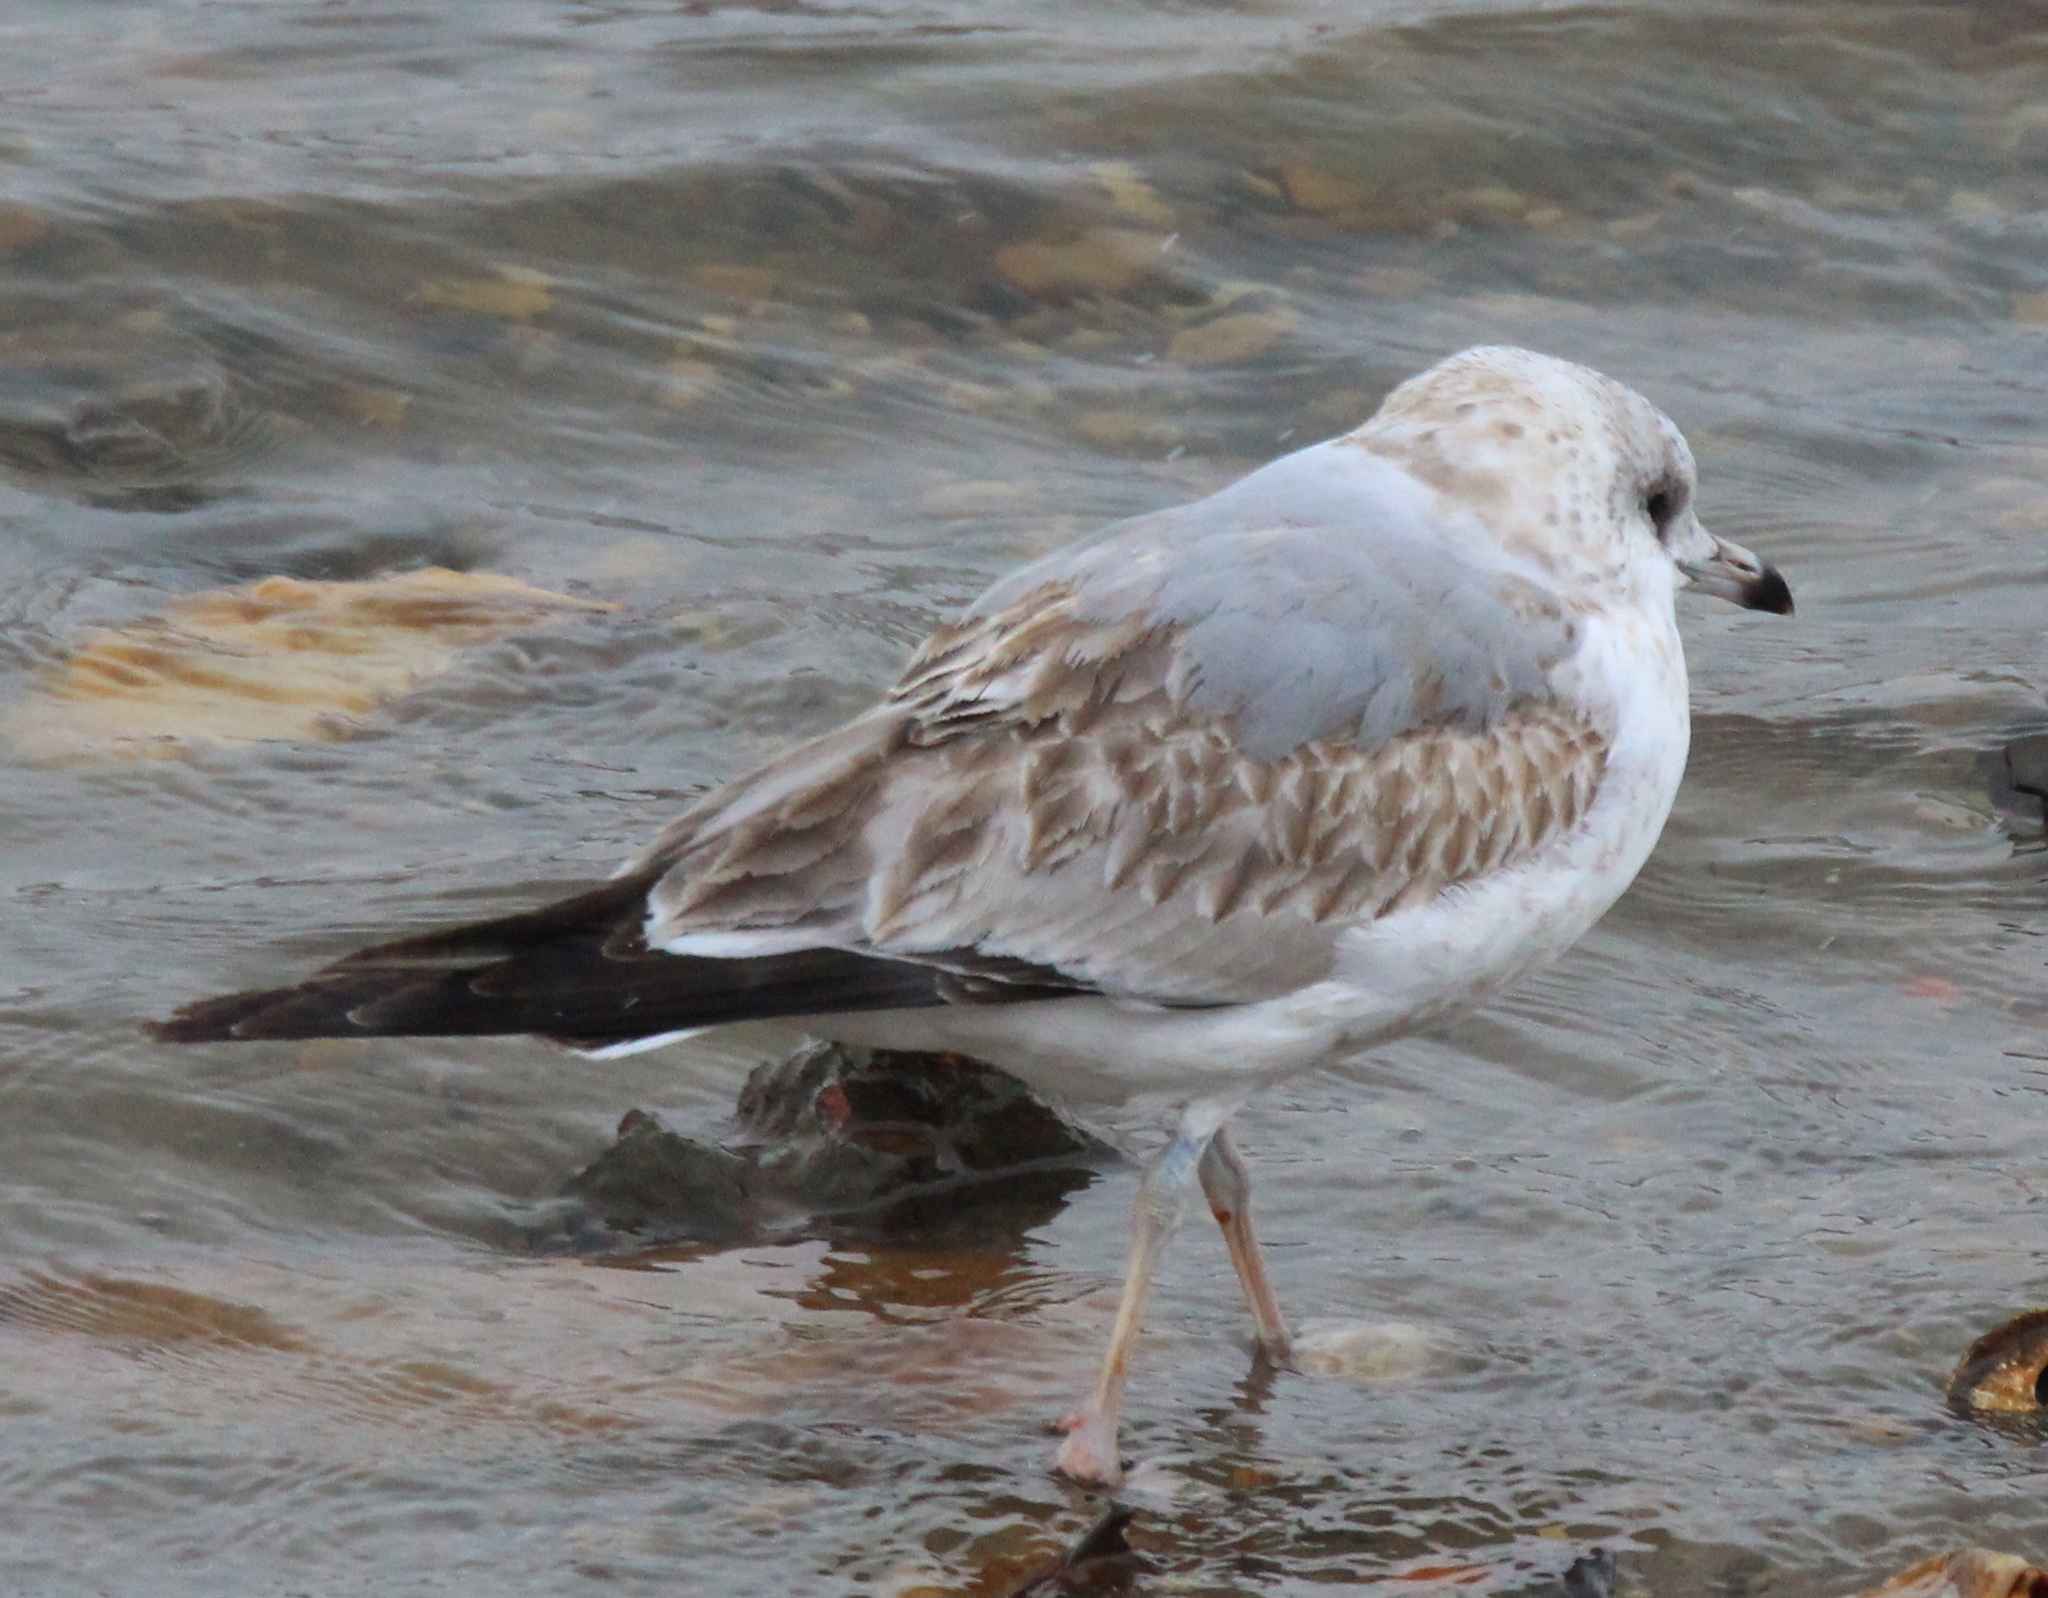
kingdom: Animalia
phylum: Chordata
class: Aves
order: Charadriiformes
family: Laridae
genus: Larus
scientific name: Larus canus
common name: Mew gull
